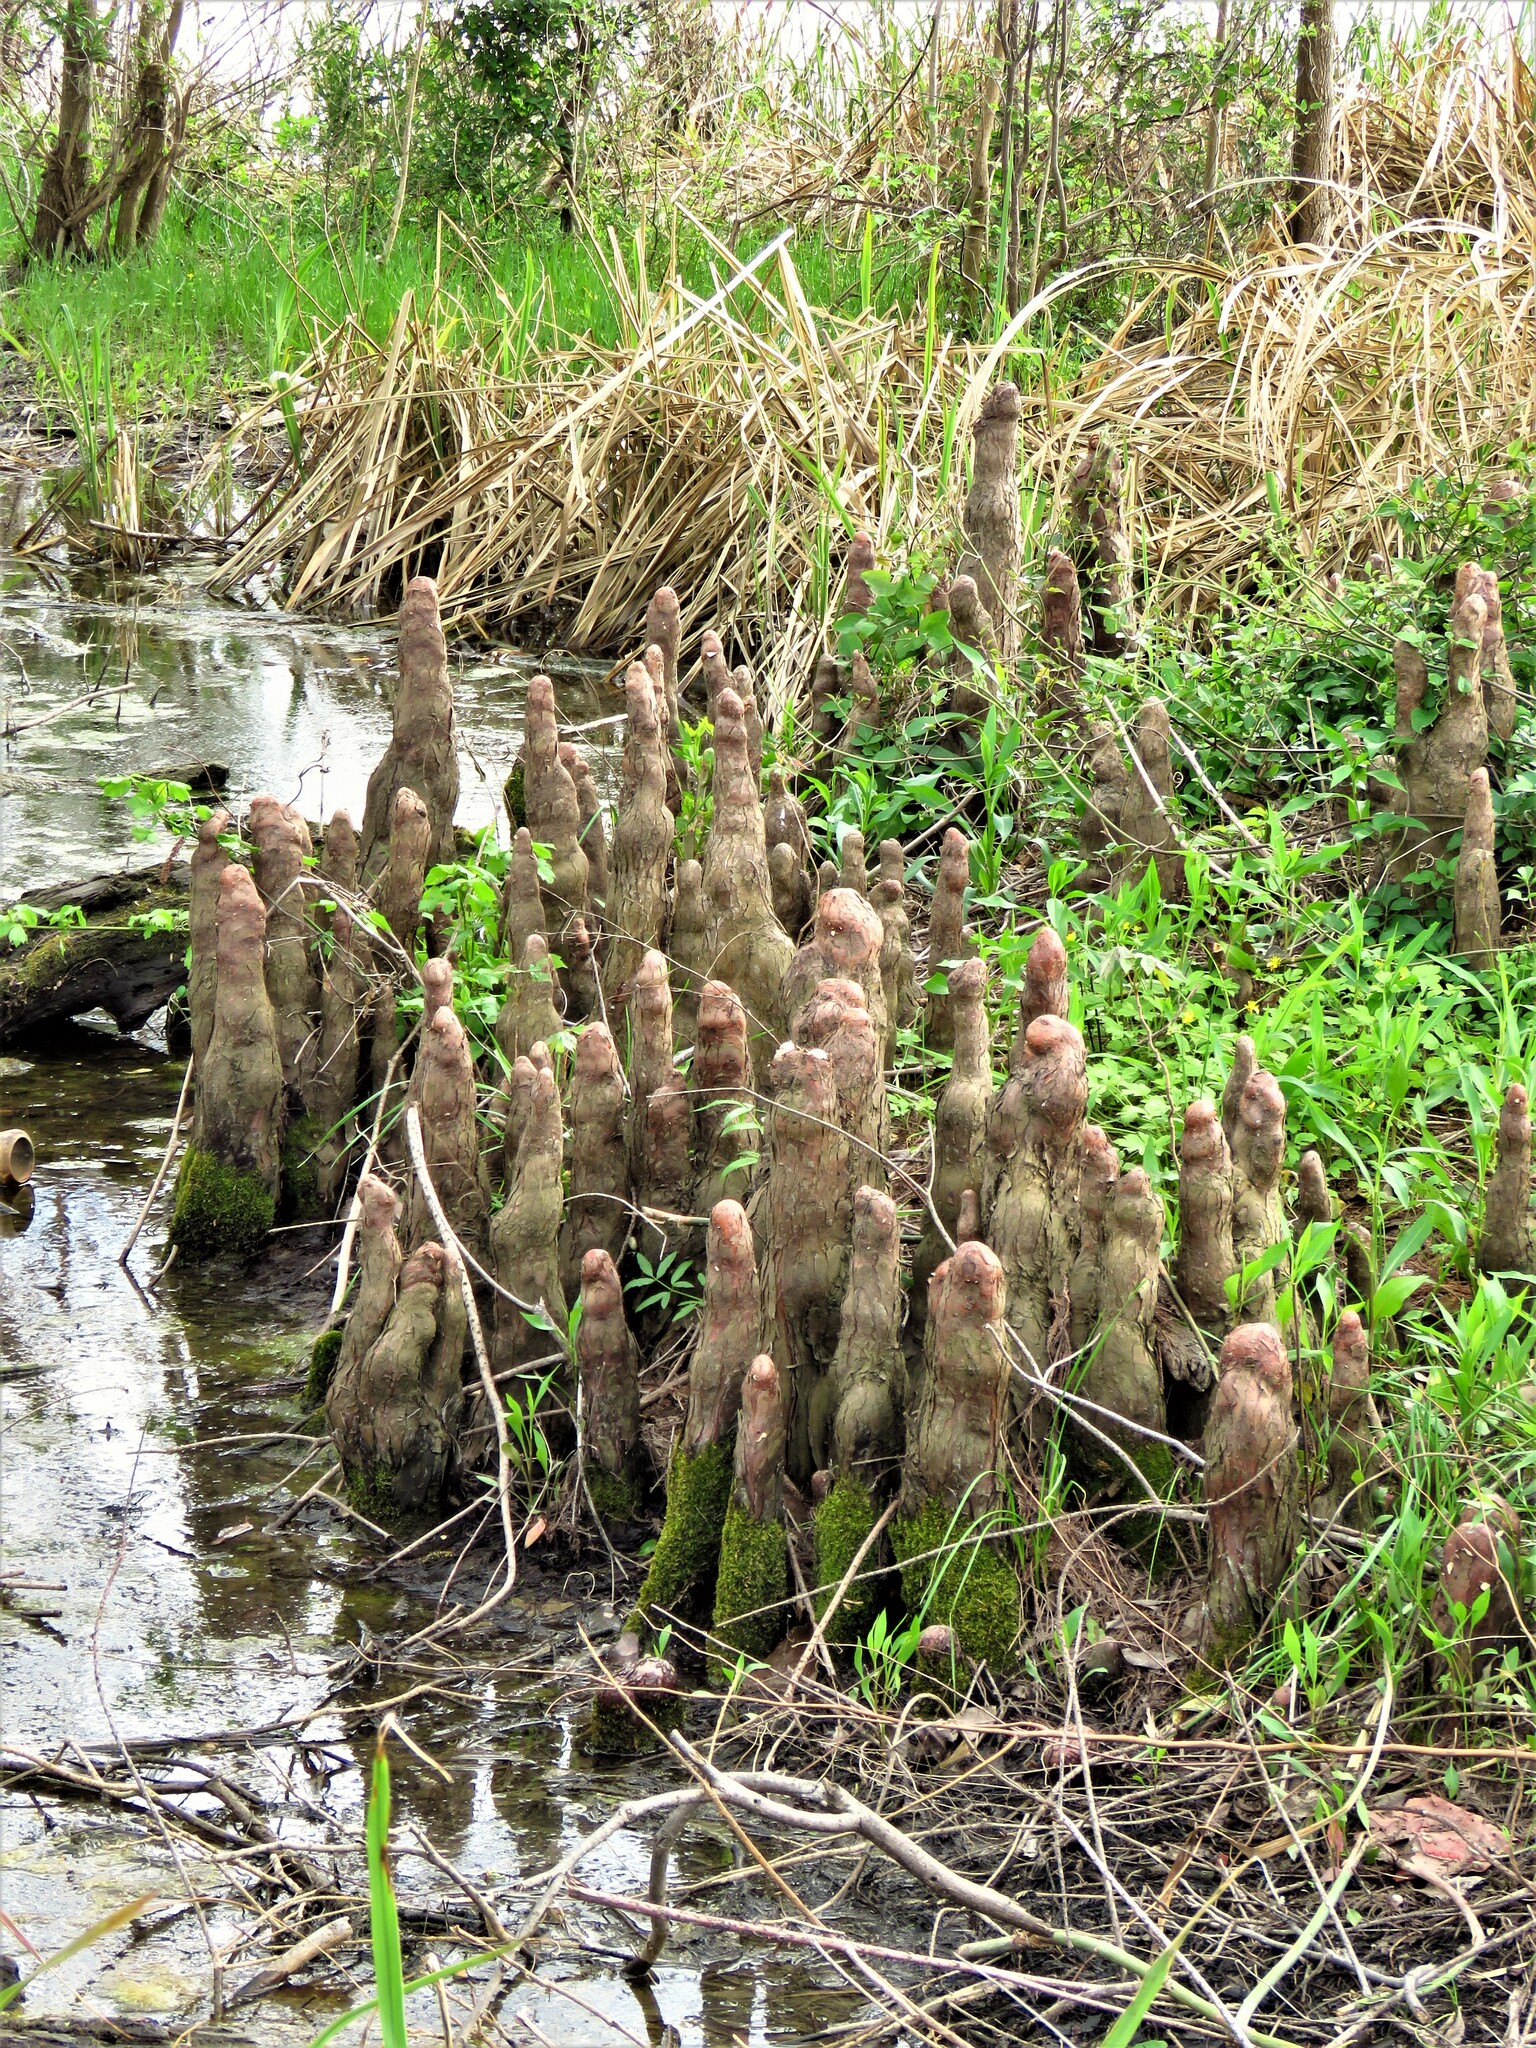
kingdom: Plantae
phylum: Tracheophyta
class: Pinopsida
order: Pinales
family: Cupressaceae
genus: Taxodium
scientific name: Taxodium distichum
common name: Bald cypress
